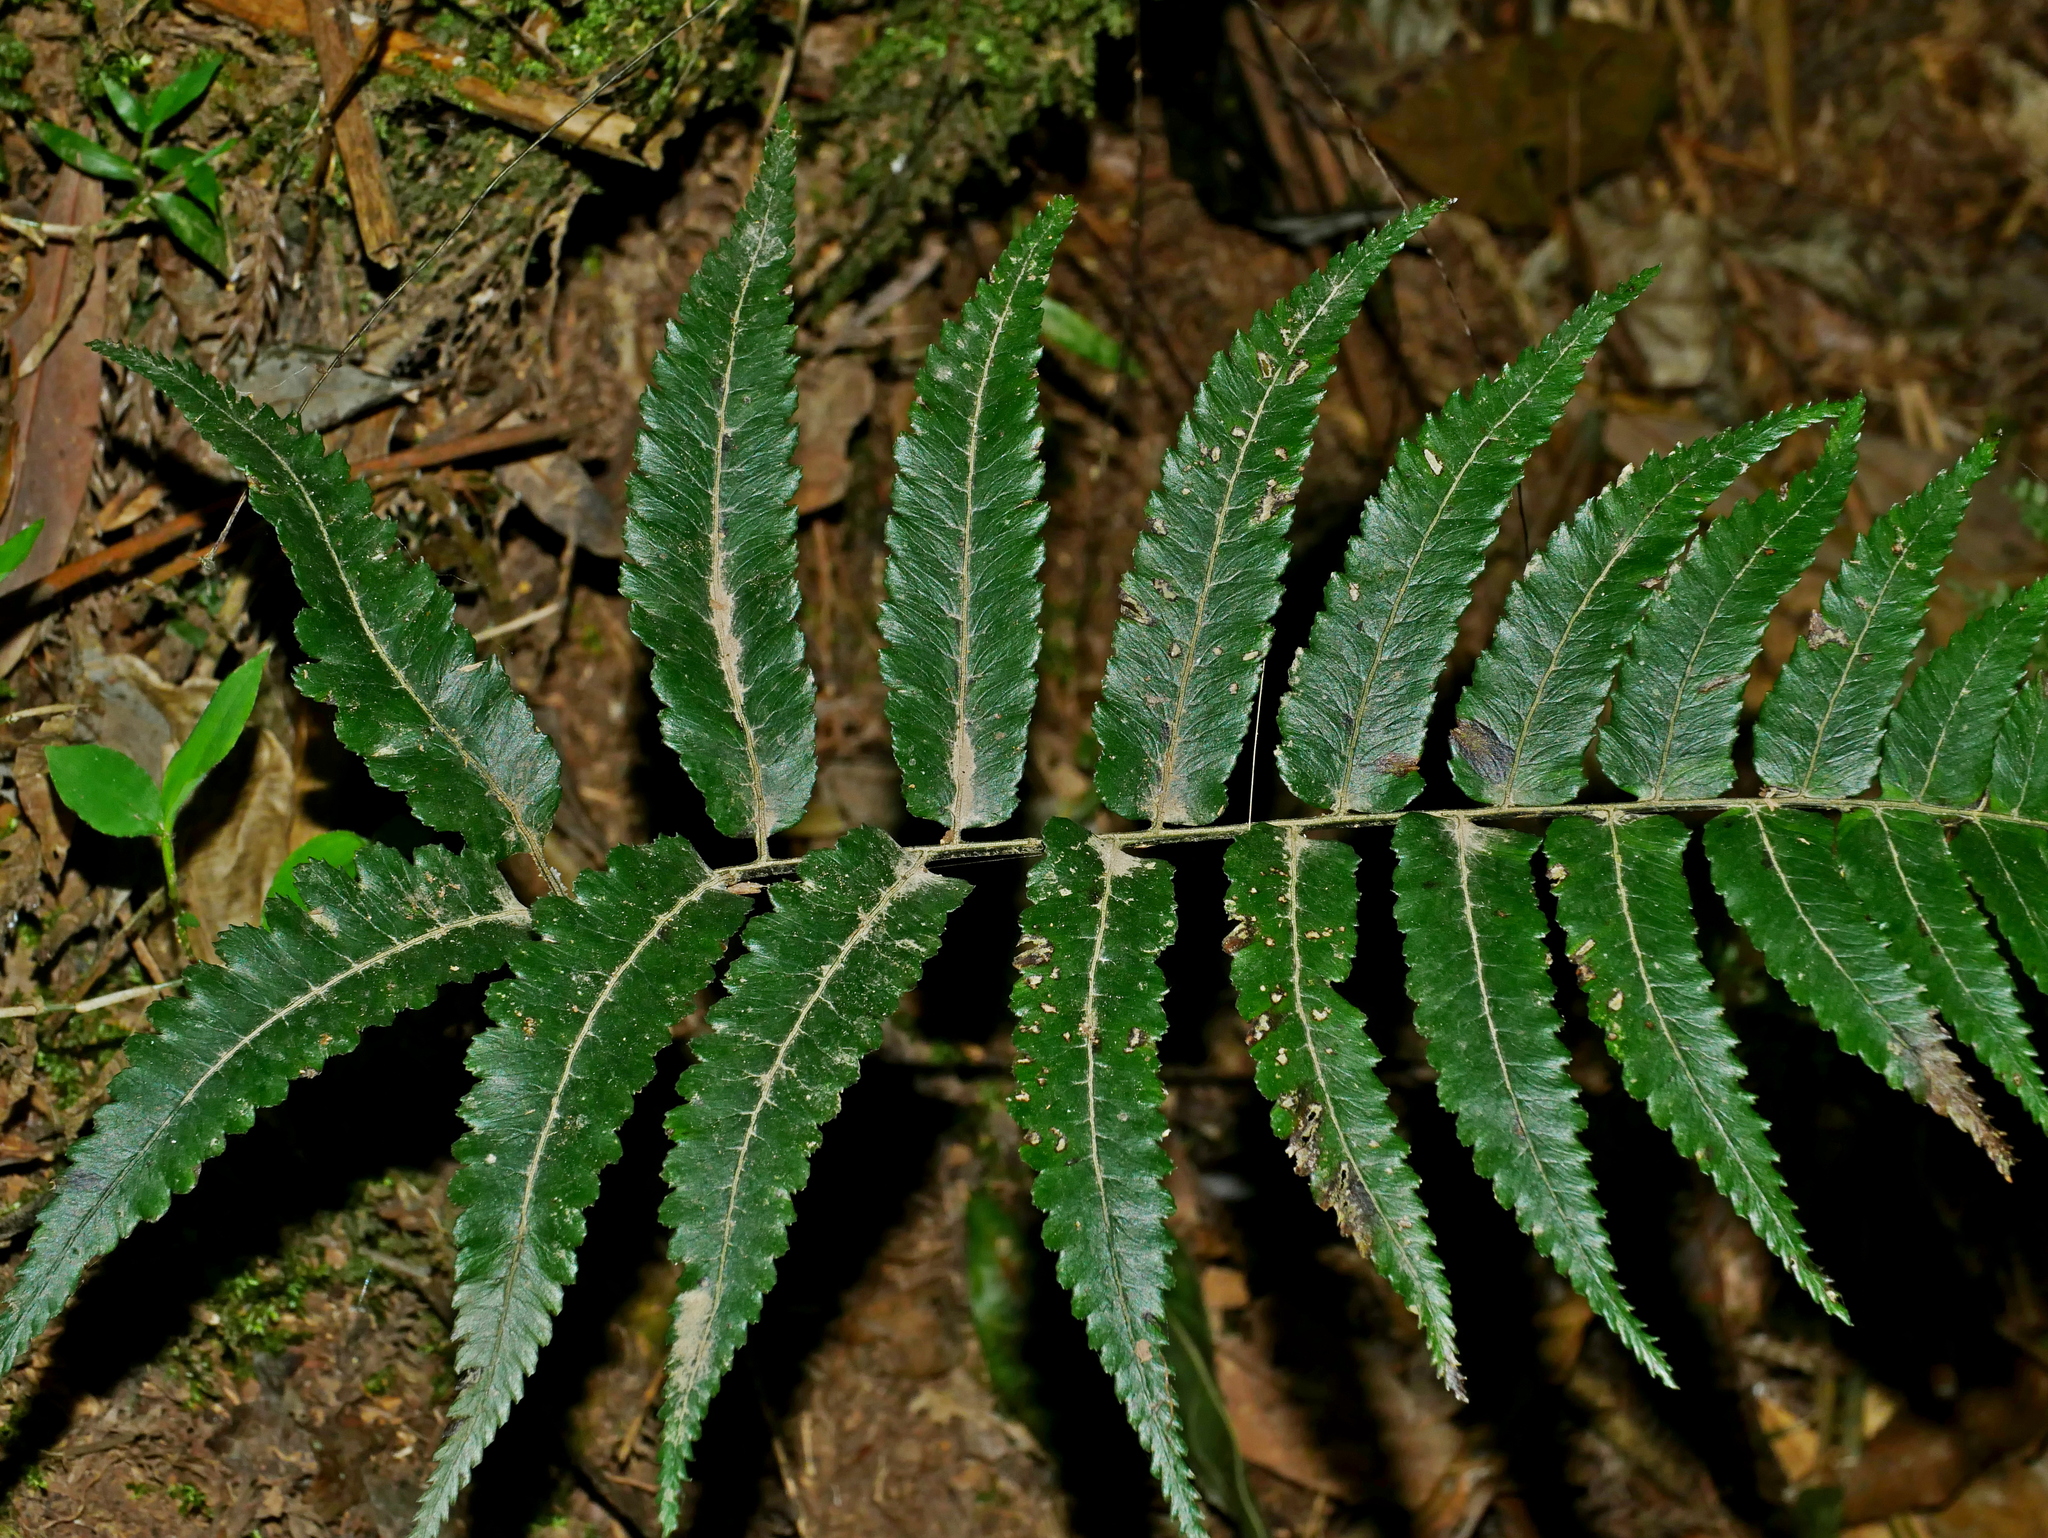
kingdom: Plantae
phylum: Tracheophyta
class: Polypodiopsida
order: Polypodiales
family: Athyriaceae
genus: Diplazium
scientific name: Diplazium fauriei
